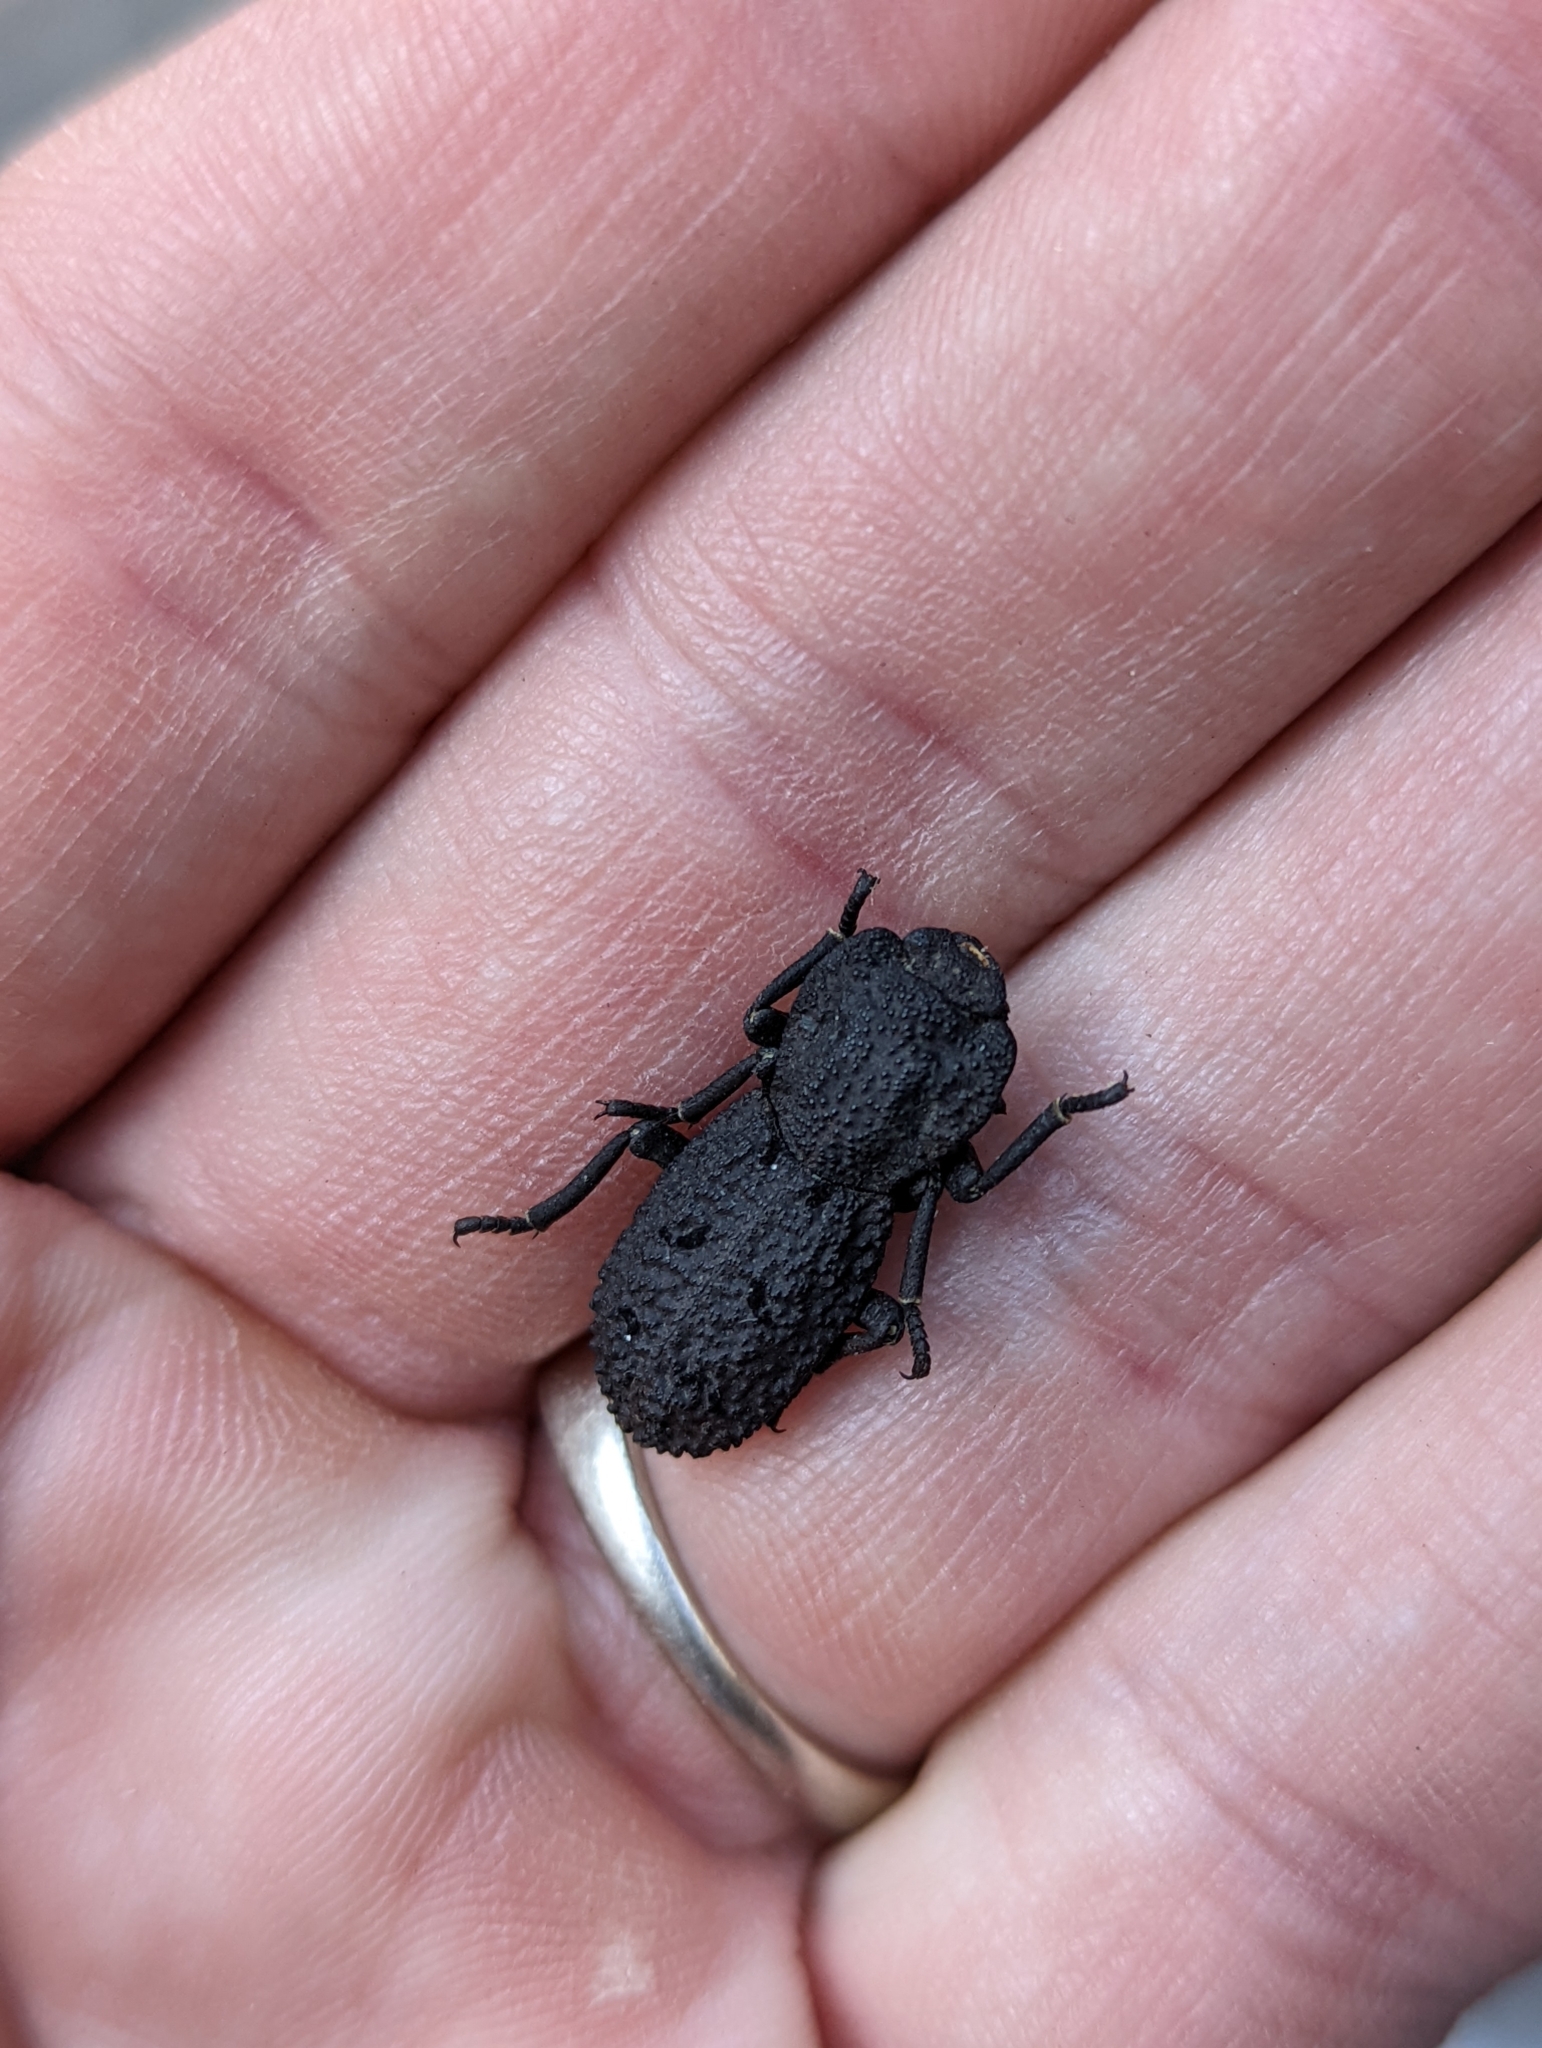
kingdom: Animalia
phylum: Arthropoda
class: Insecta
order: Coleoptera
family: Zopheridae
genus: Phloeodes
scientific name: Phloeodes diabolicus
